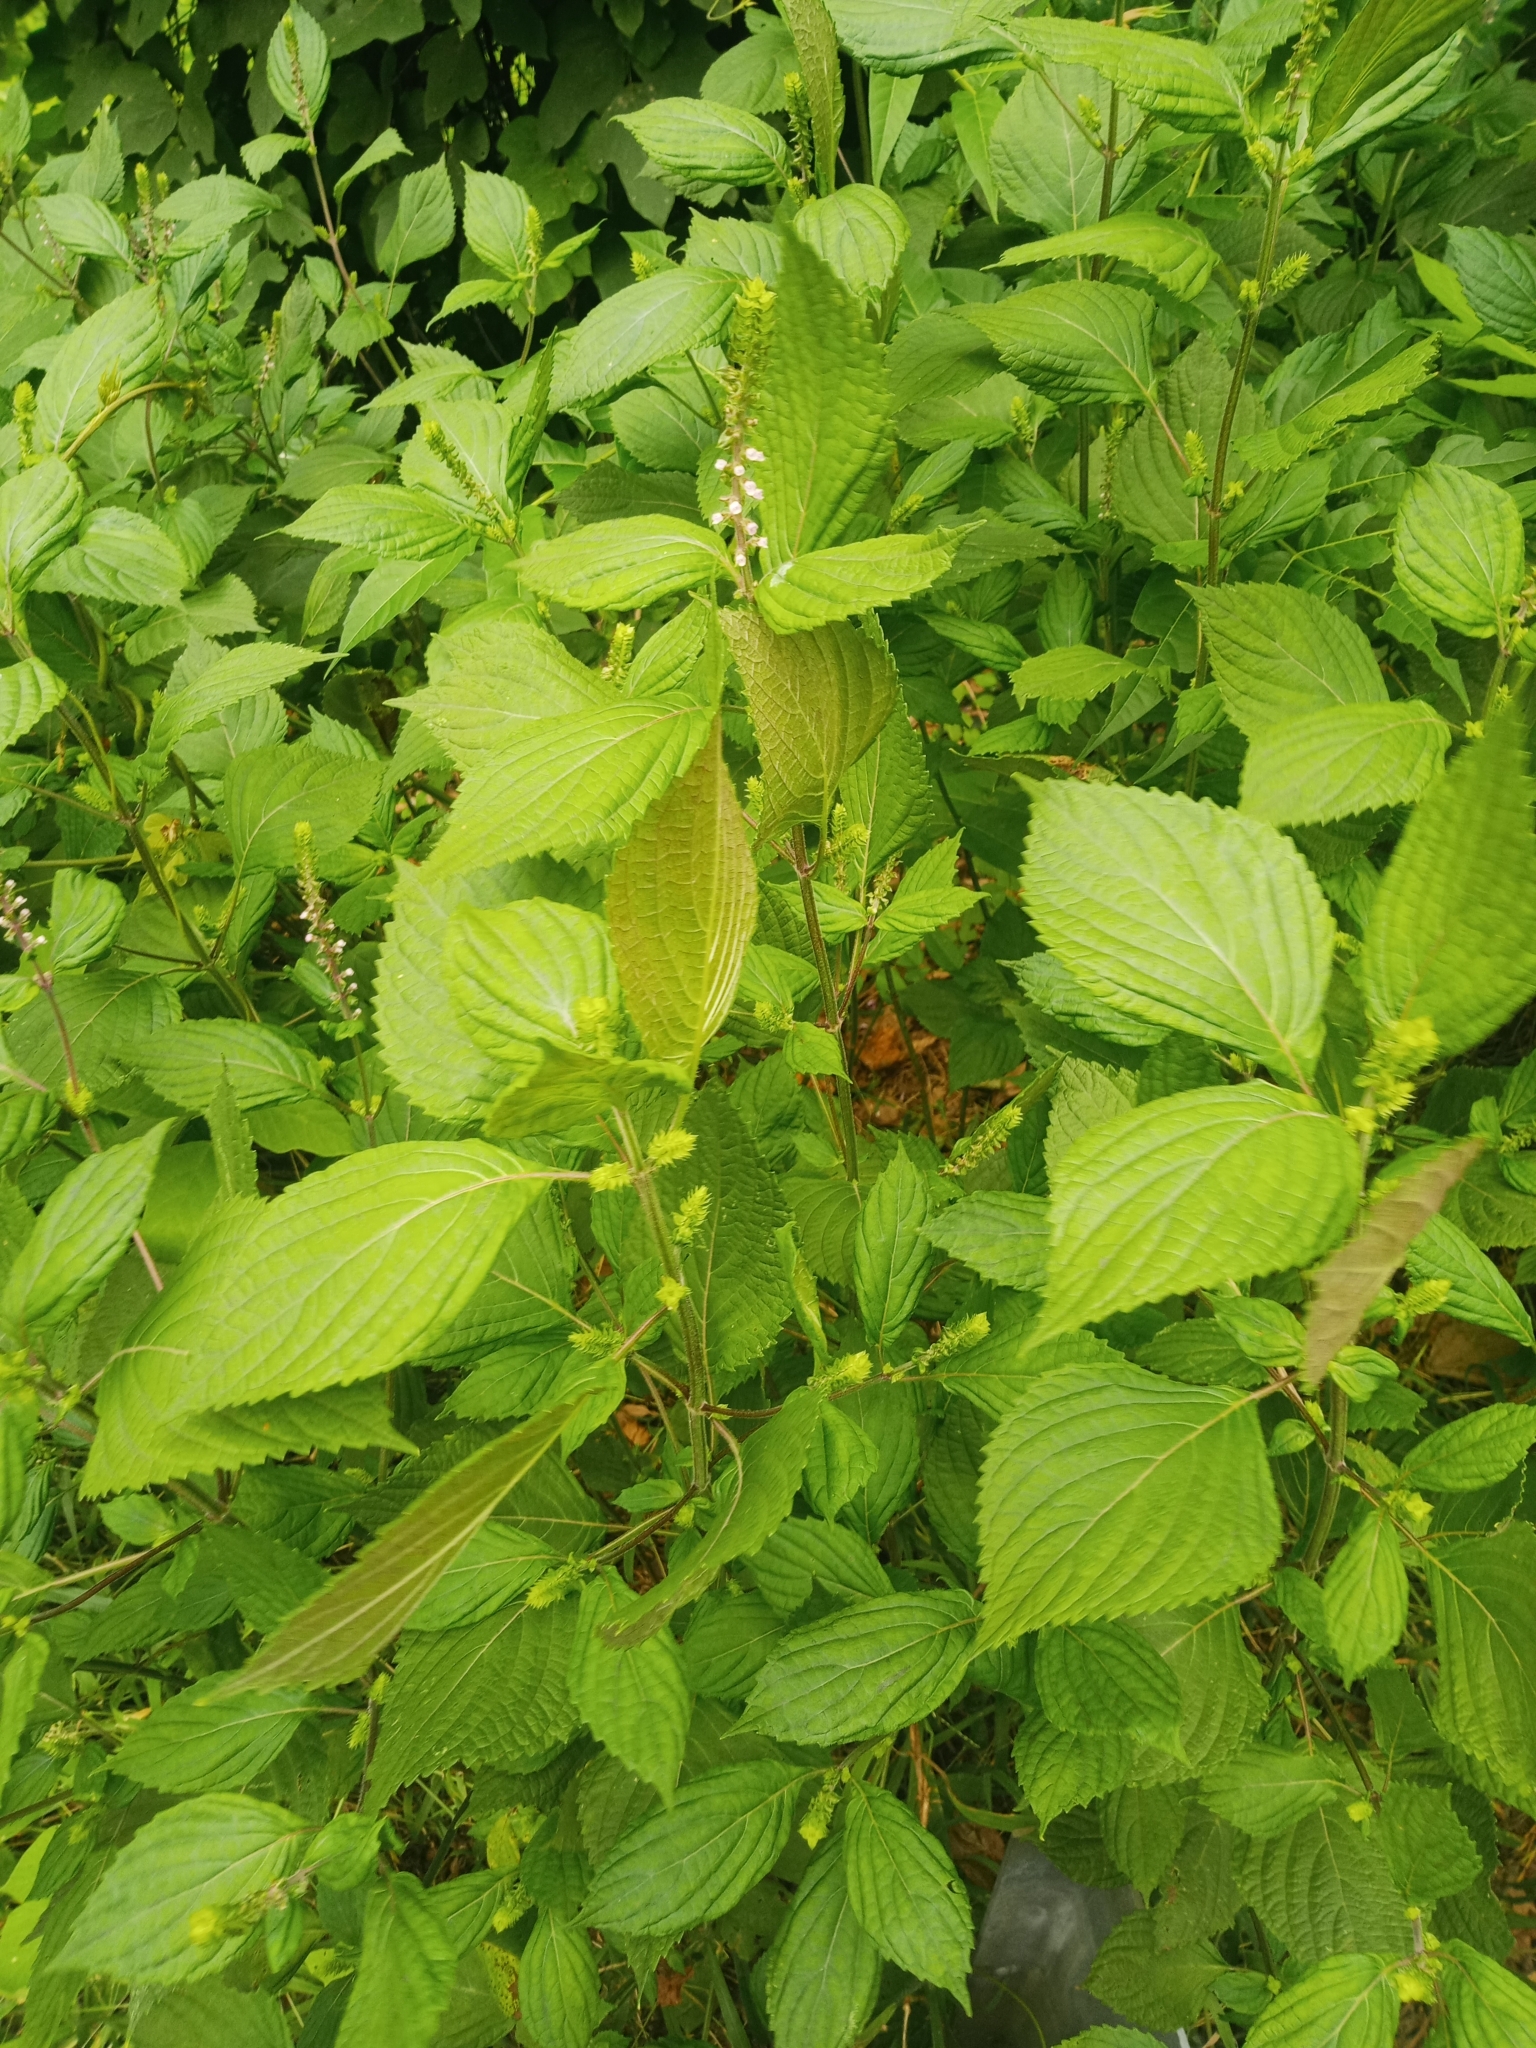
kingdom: Plantae
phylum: Tracheophyta
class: Magnoliopsida
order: Lamiales
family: Lamiaceae
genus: Perilla
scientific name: Perilla frutescens
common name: Perilla
